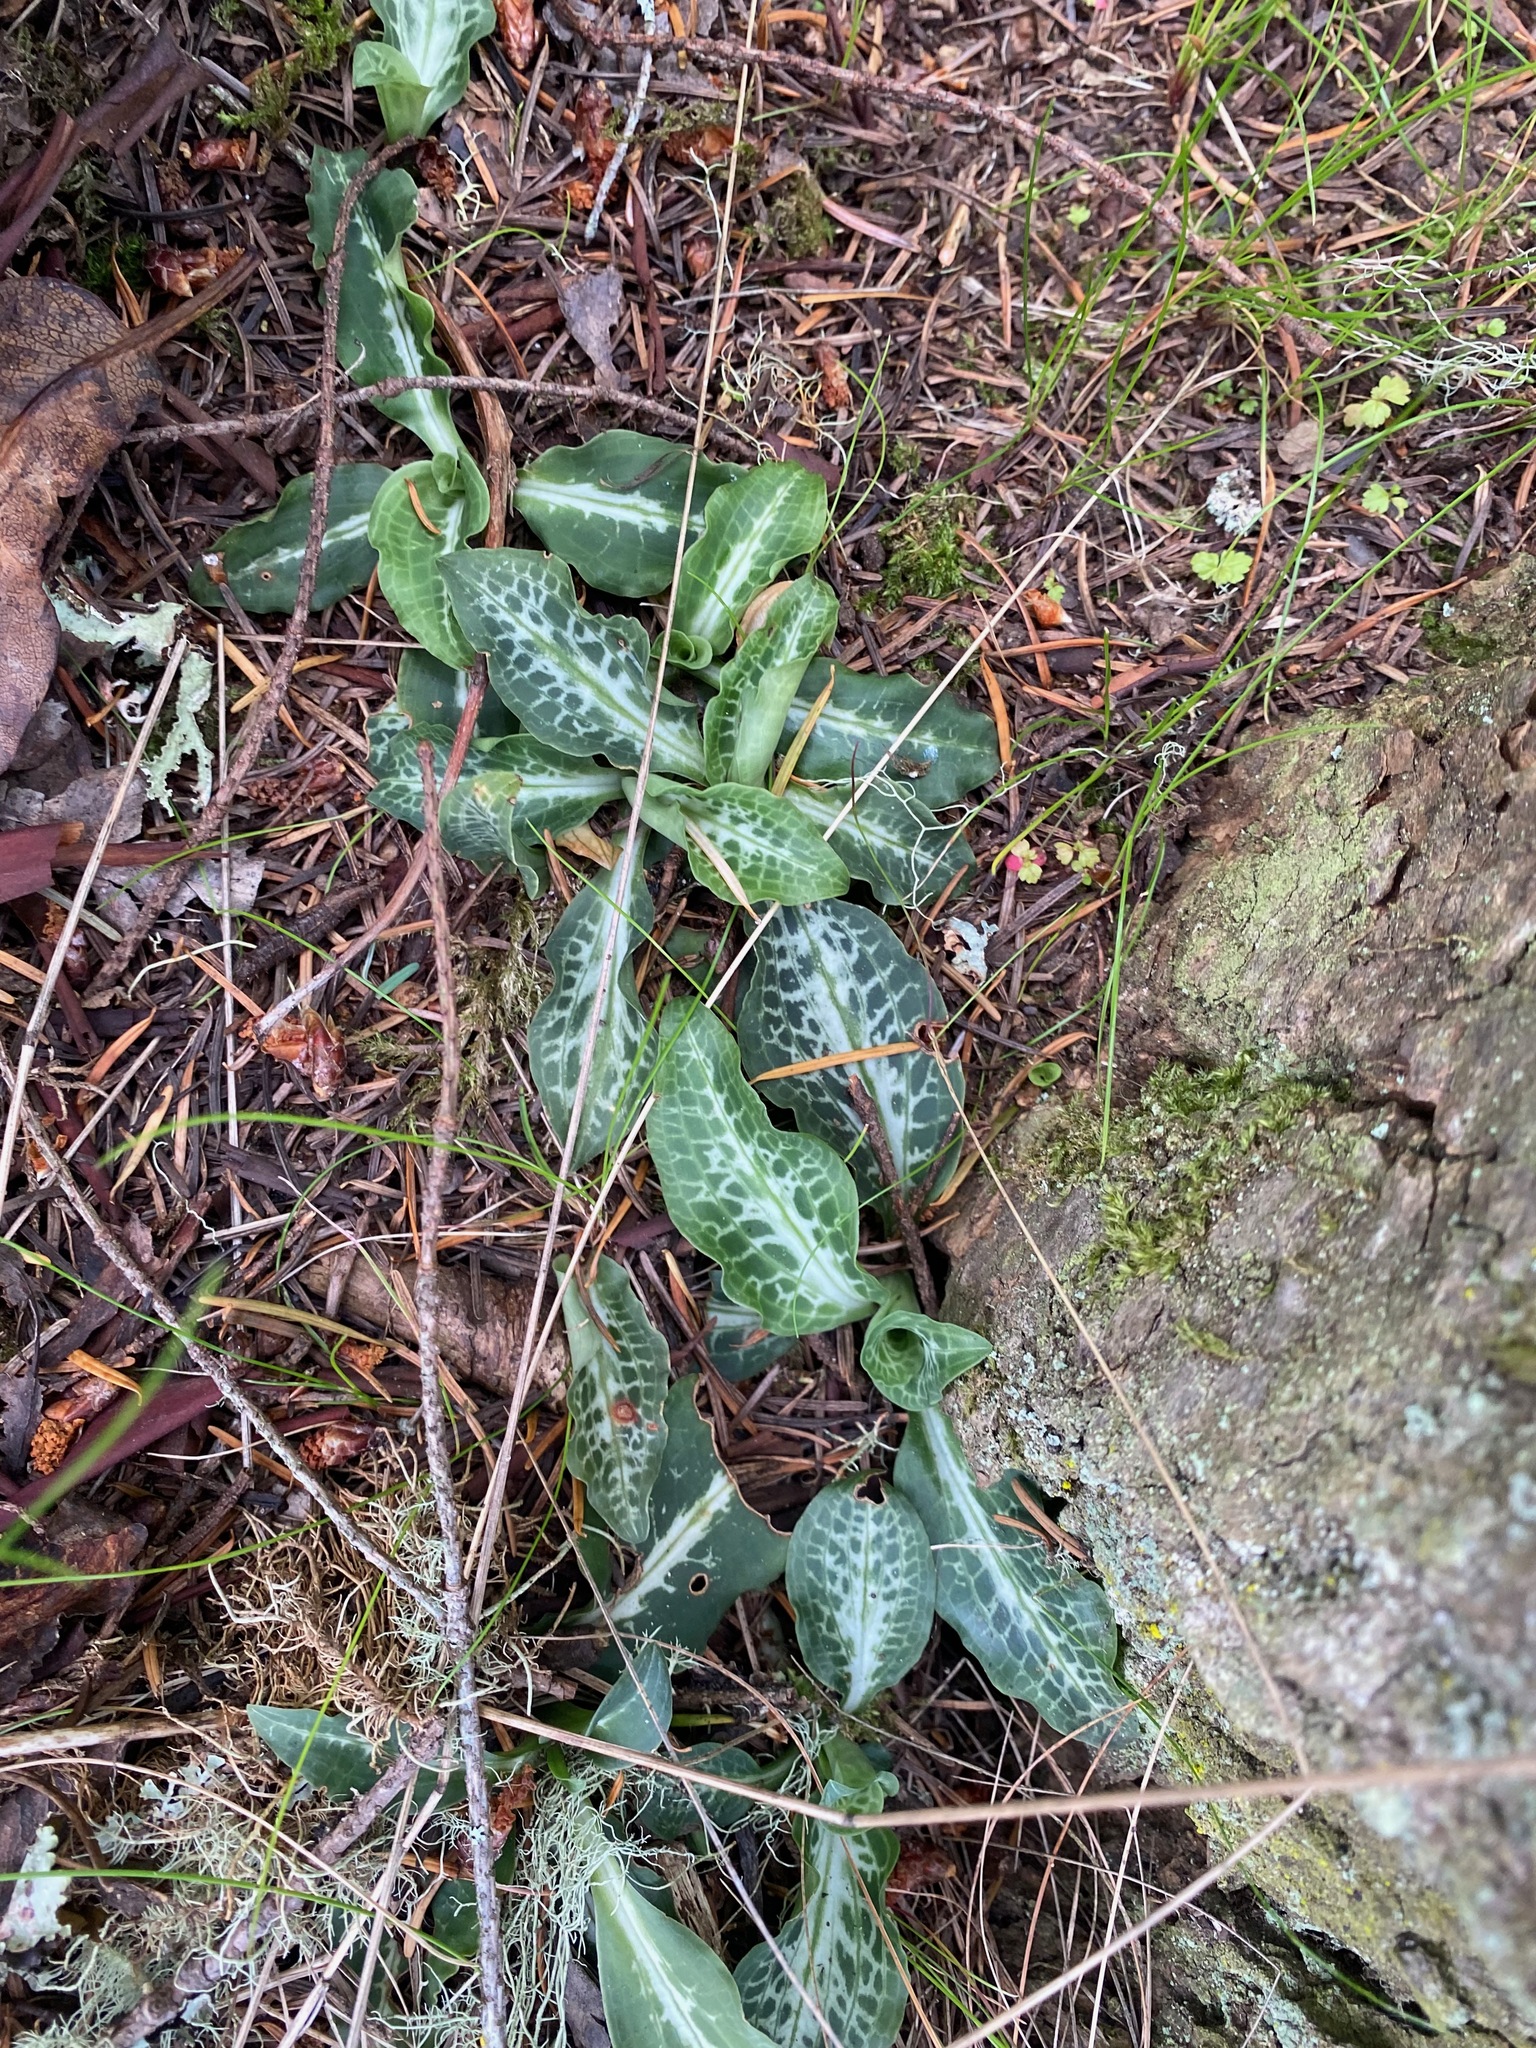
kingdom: Plantae
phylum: Tracheophyta
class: Liliopsida
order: Asparagales
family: Orchidaceae
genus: Goodyera
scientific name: Goodyera oblongifolia
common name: Giant rattlesnake-plantain
